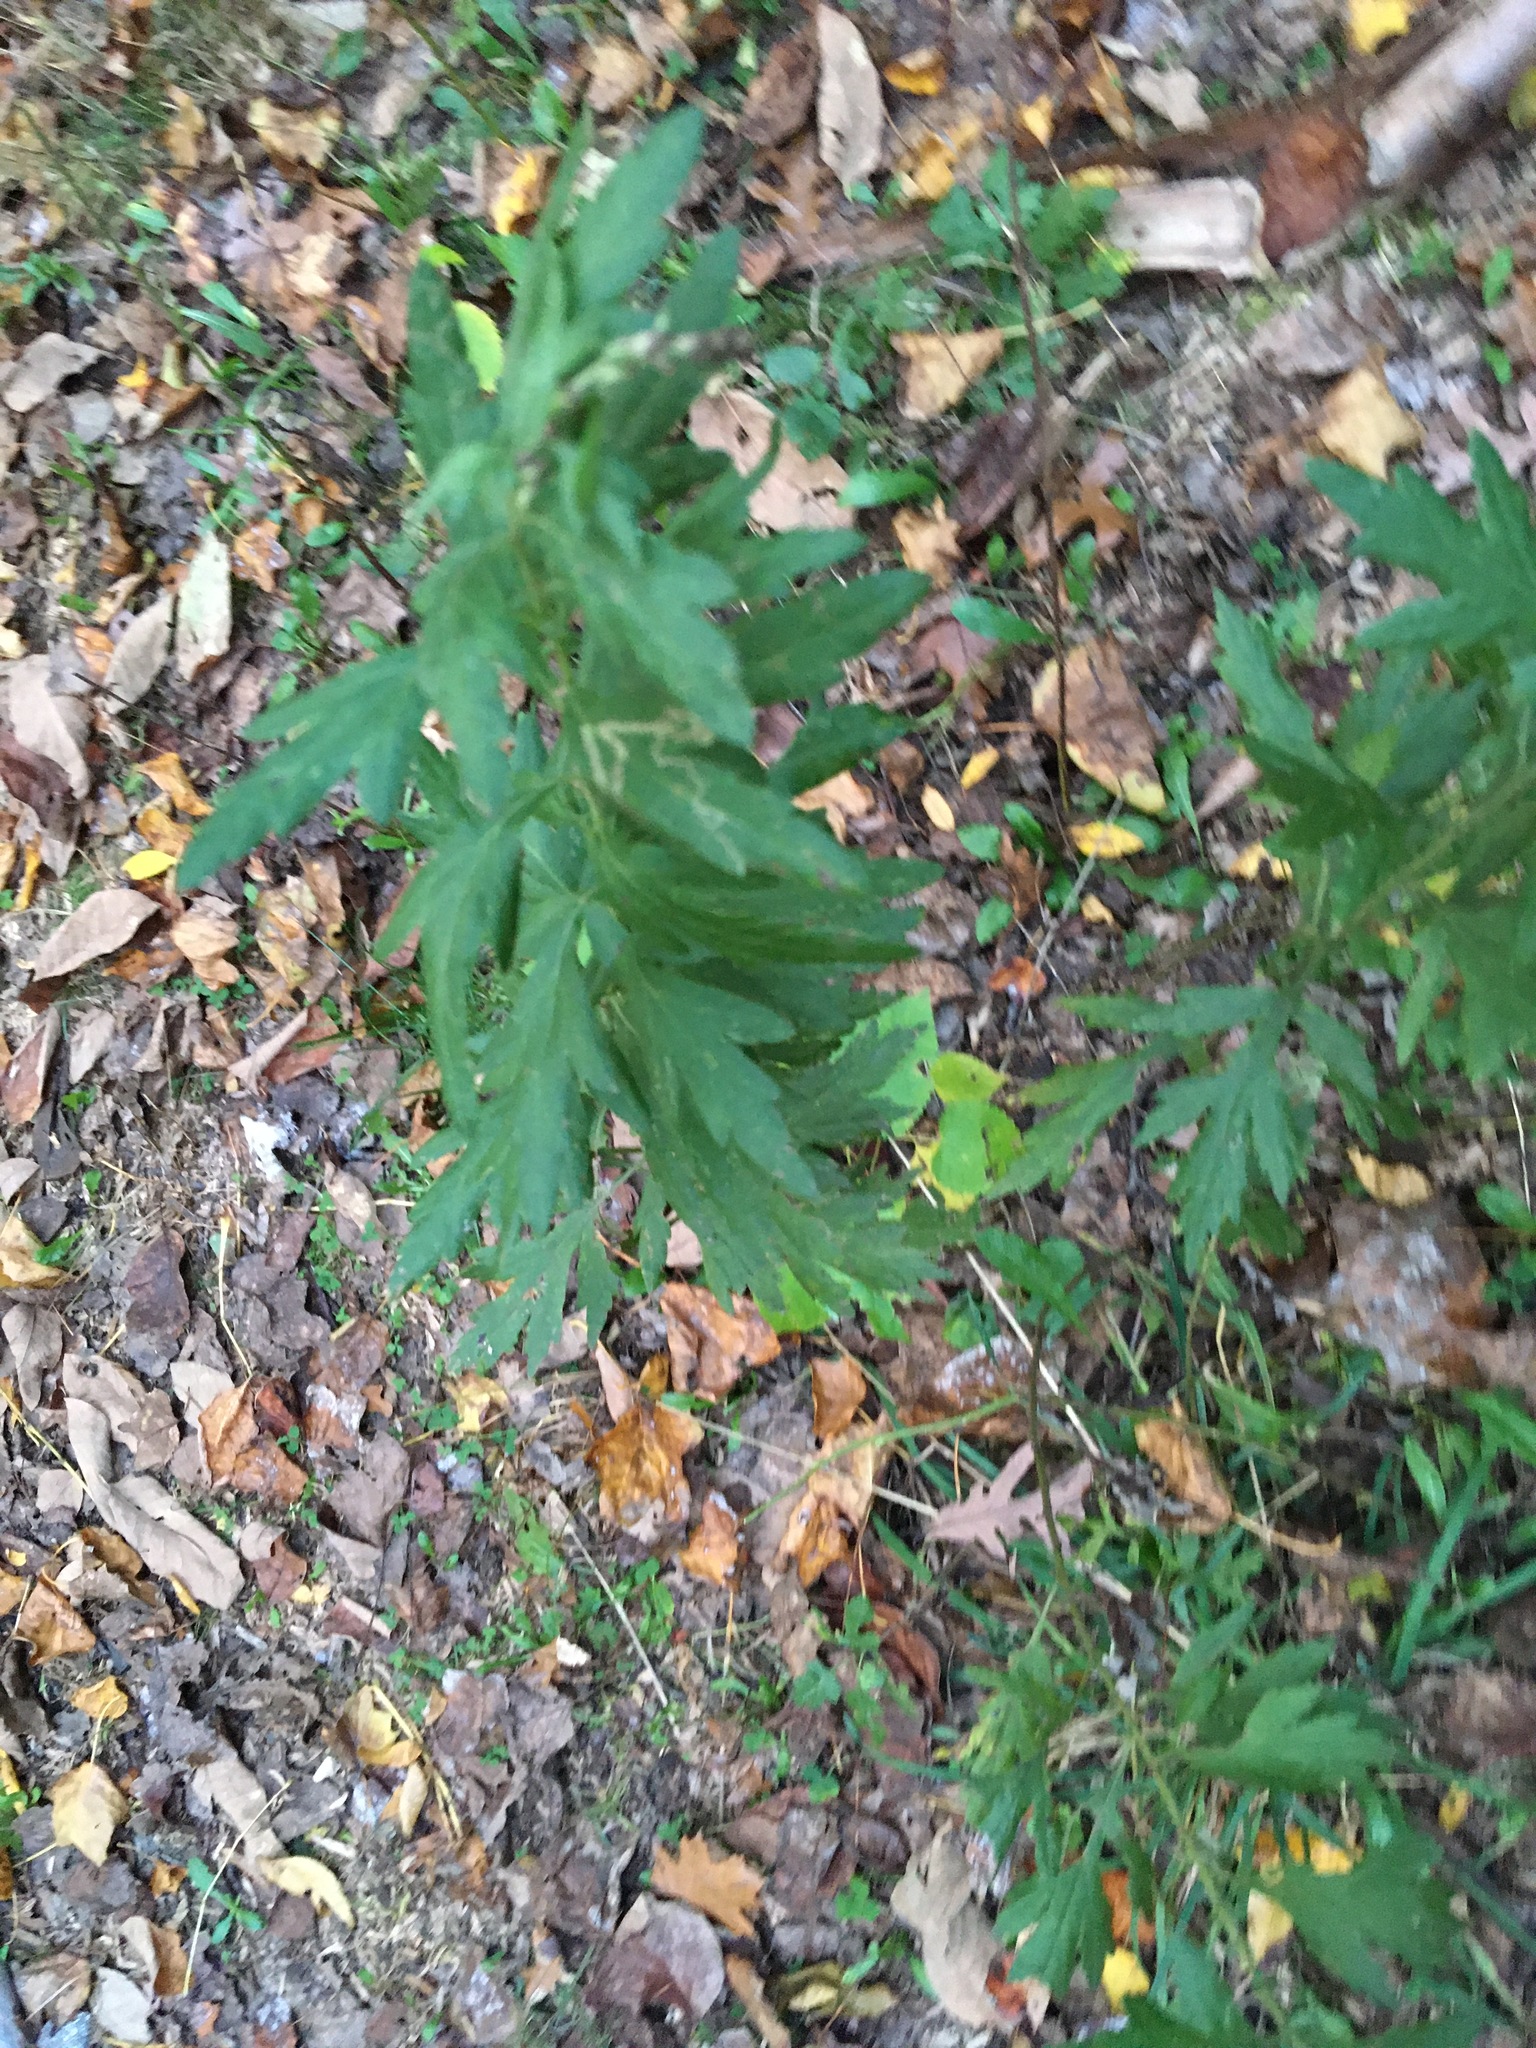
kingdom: Plantae
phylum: Tracheophyta
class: Magnoliopsida
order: Asterales
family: Asteraceae
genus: Artemisia
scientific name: Artemisia vulgaris
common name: Mugwort
